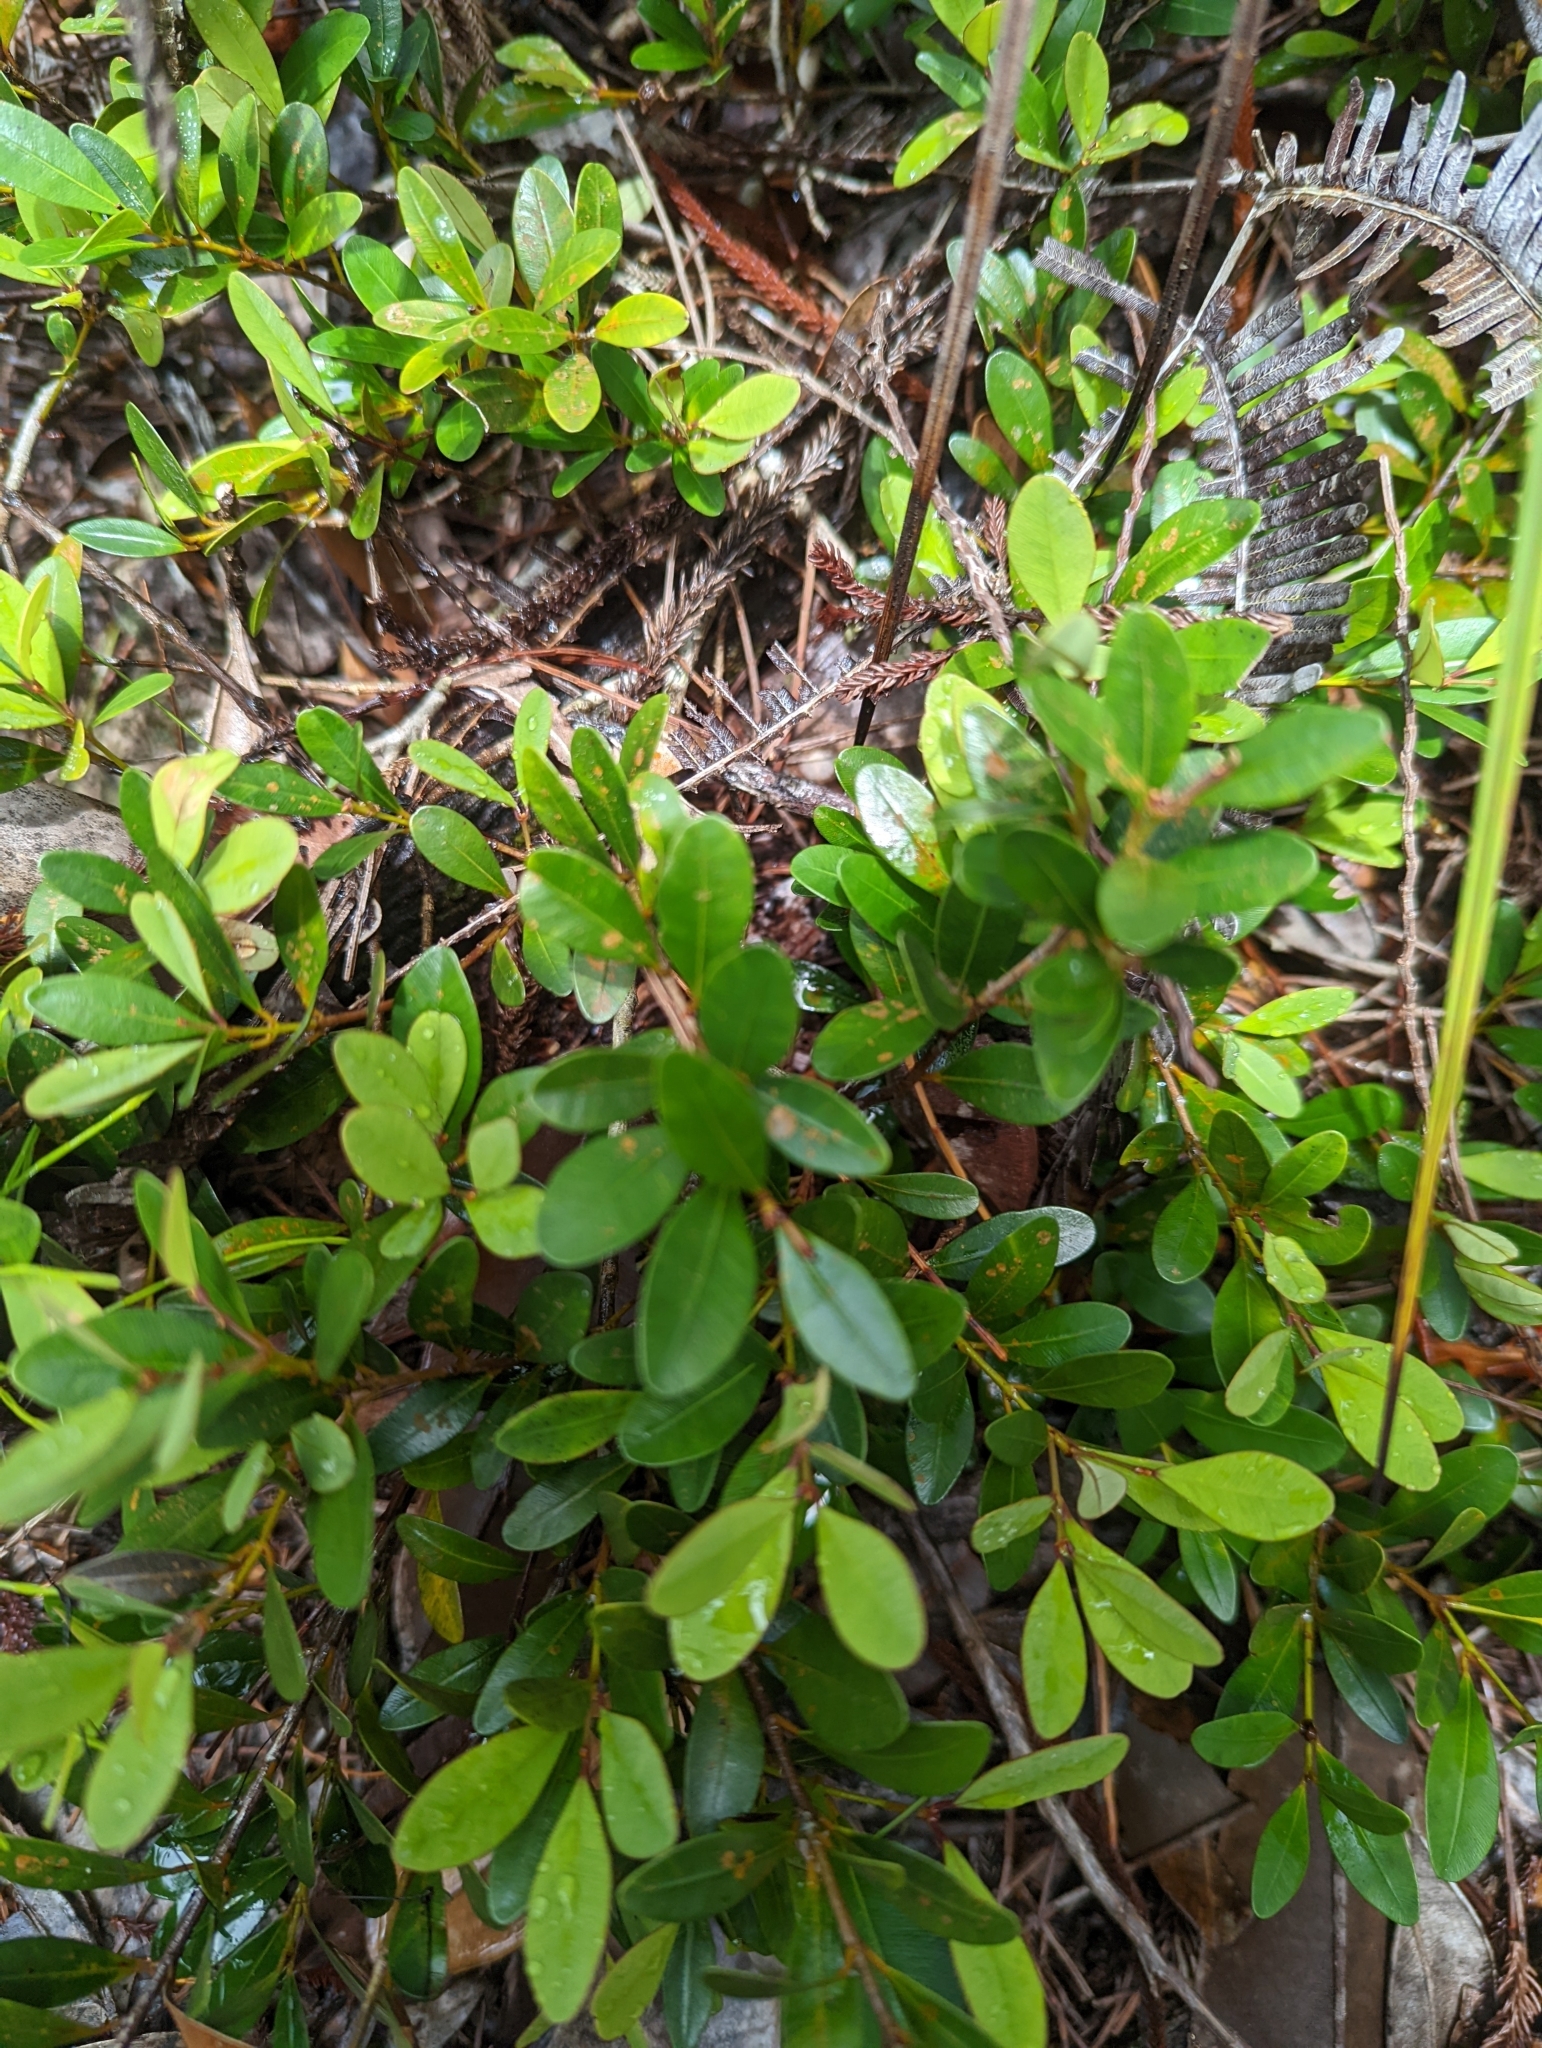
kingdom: Plantae
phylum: Tracheophyta
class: Magnoliopsida
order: Malpighiales
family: Calophyllaceae
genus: Calophyllum
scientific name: Calophyllum teysmannii
